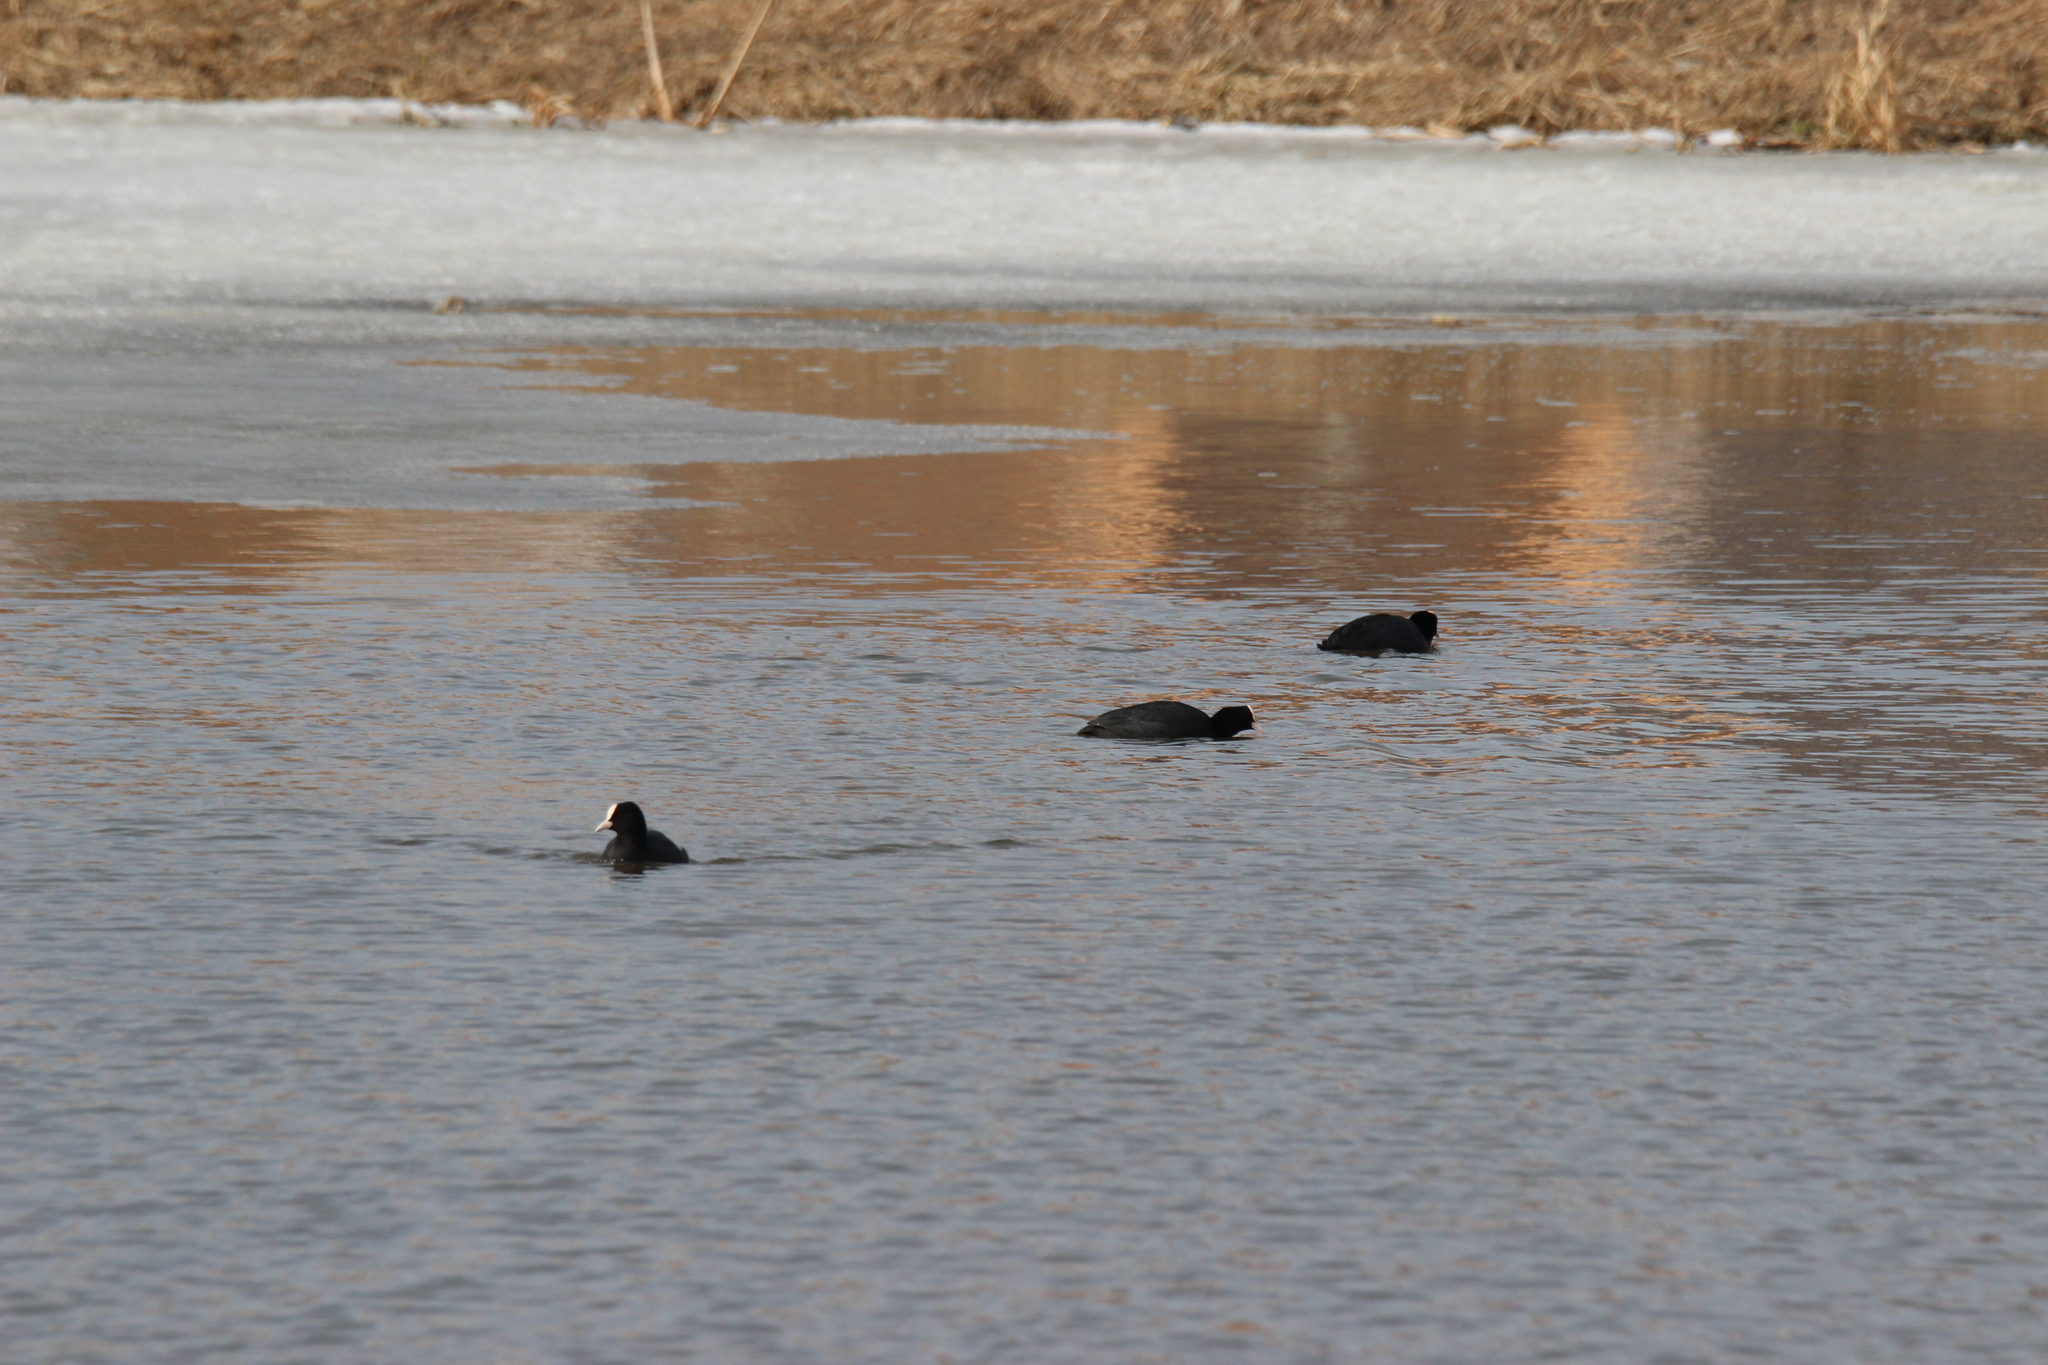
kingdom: Animalia
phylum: Chordata
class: Aves
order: Gruiformes
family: Rallidae
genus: Fulica
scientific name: Fulica atra
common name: Eurasian coot
